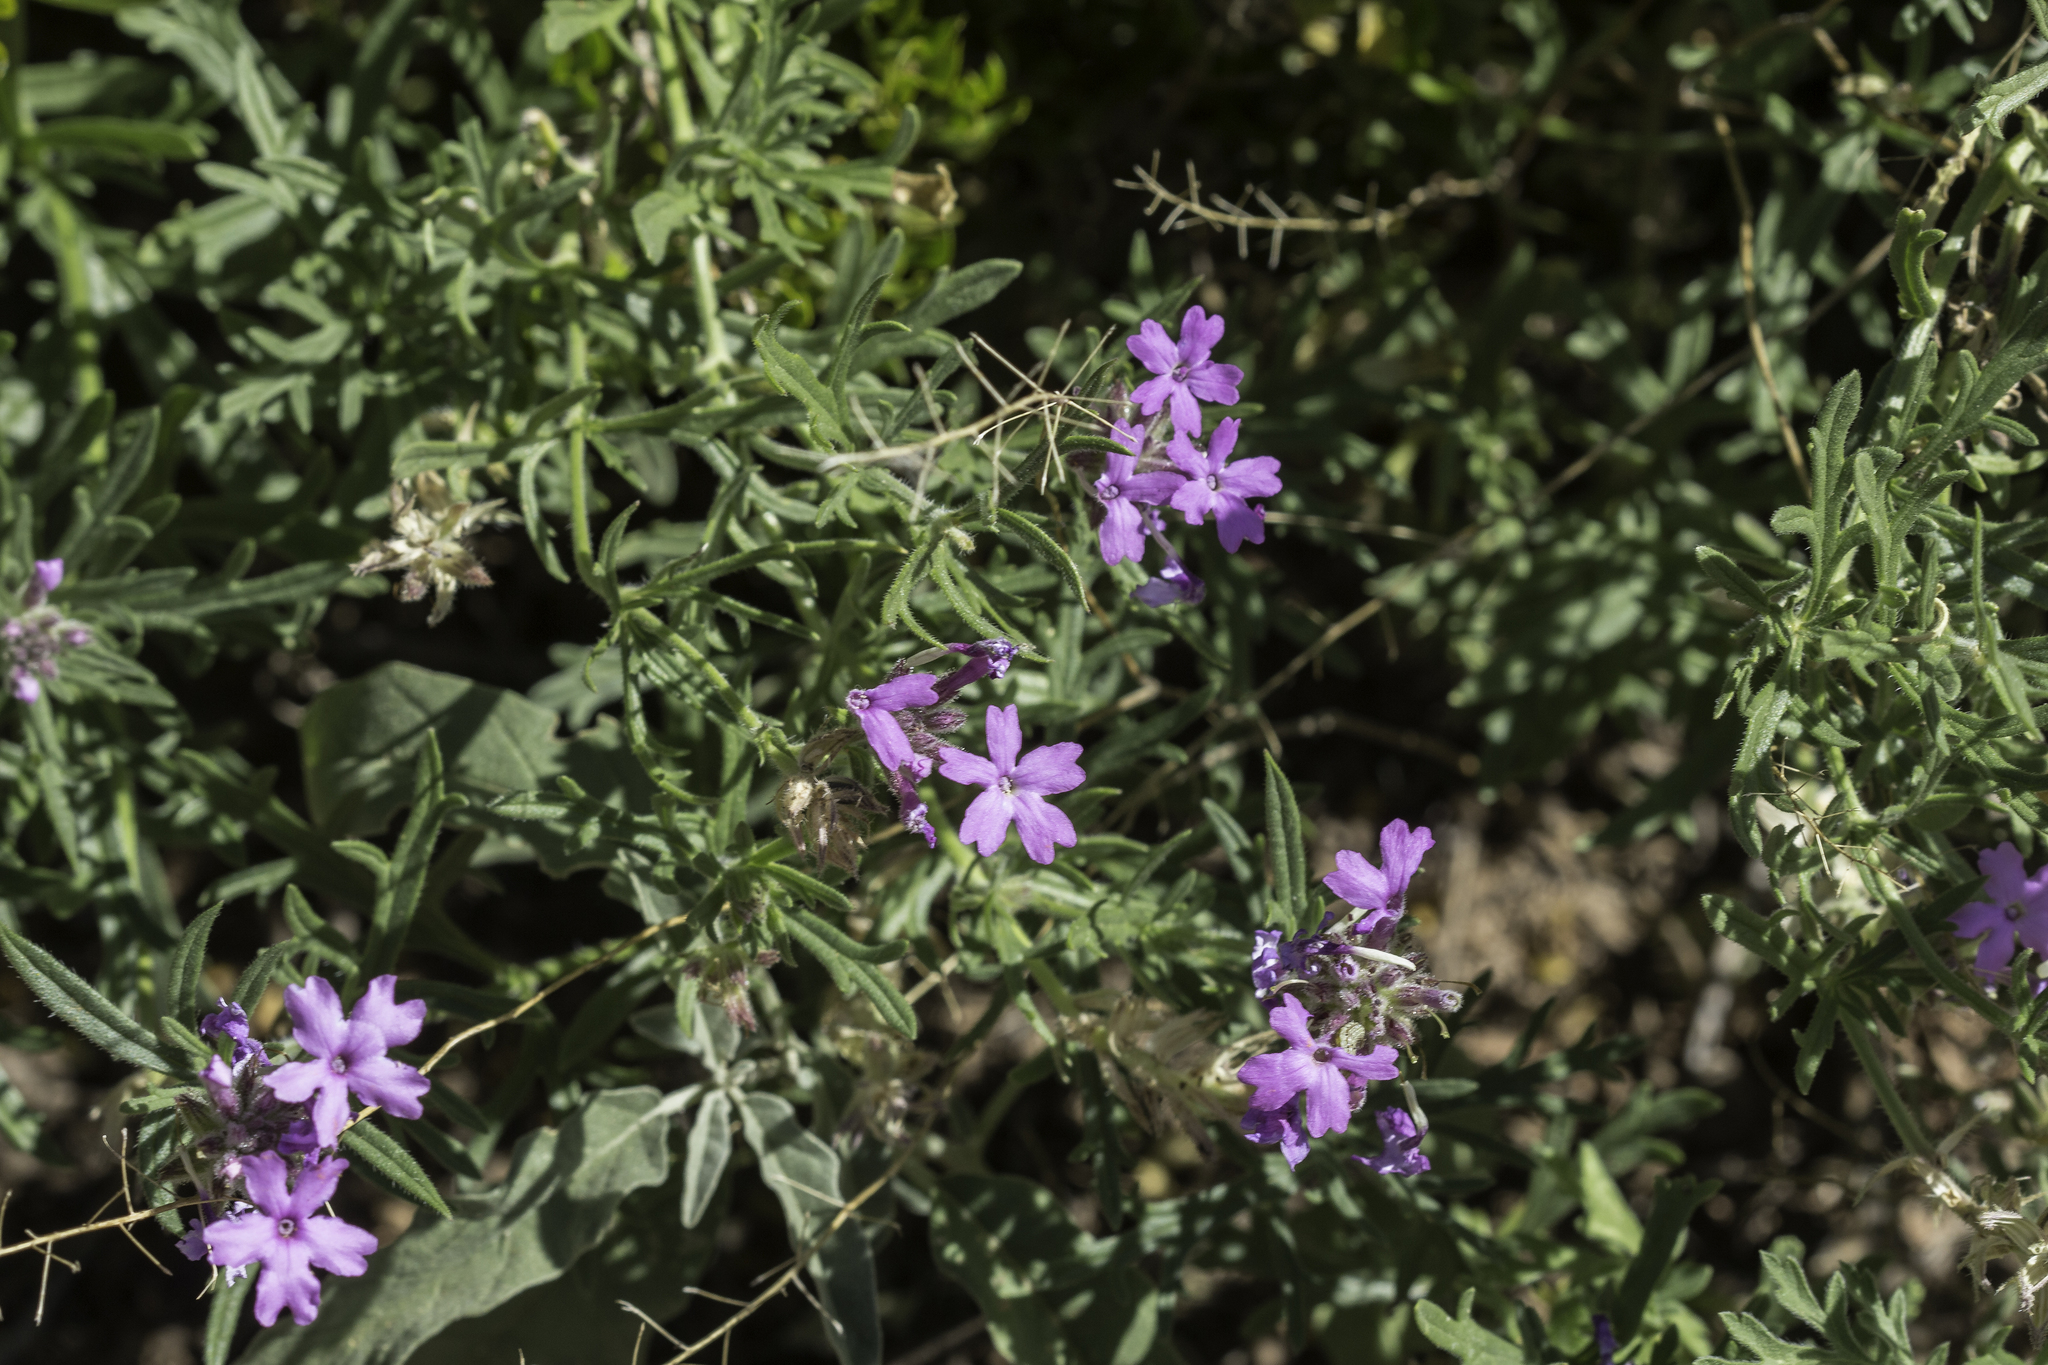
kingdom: Plantae
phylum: Tracheophyta
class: Magnoliopsida
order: Lamiales
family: Verbenaceae
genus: Verbena
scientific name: Verbena bipinnatifida
